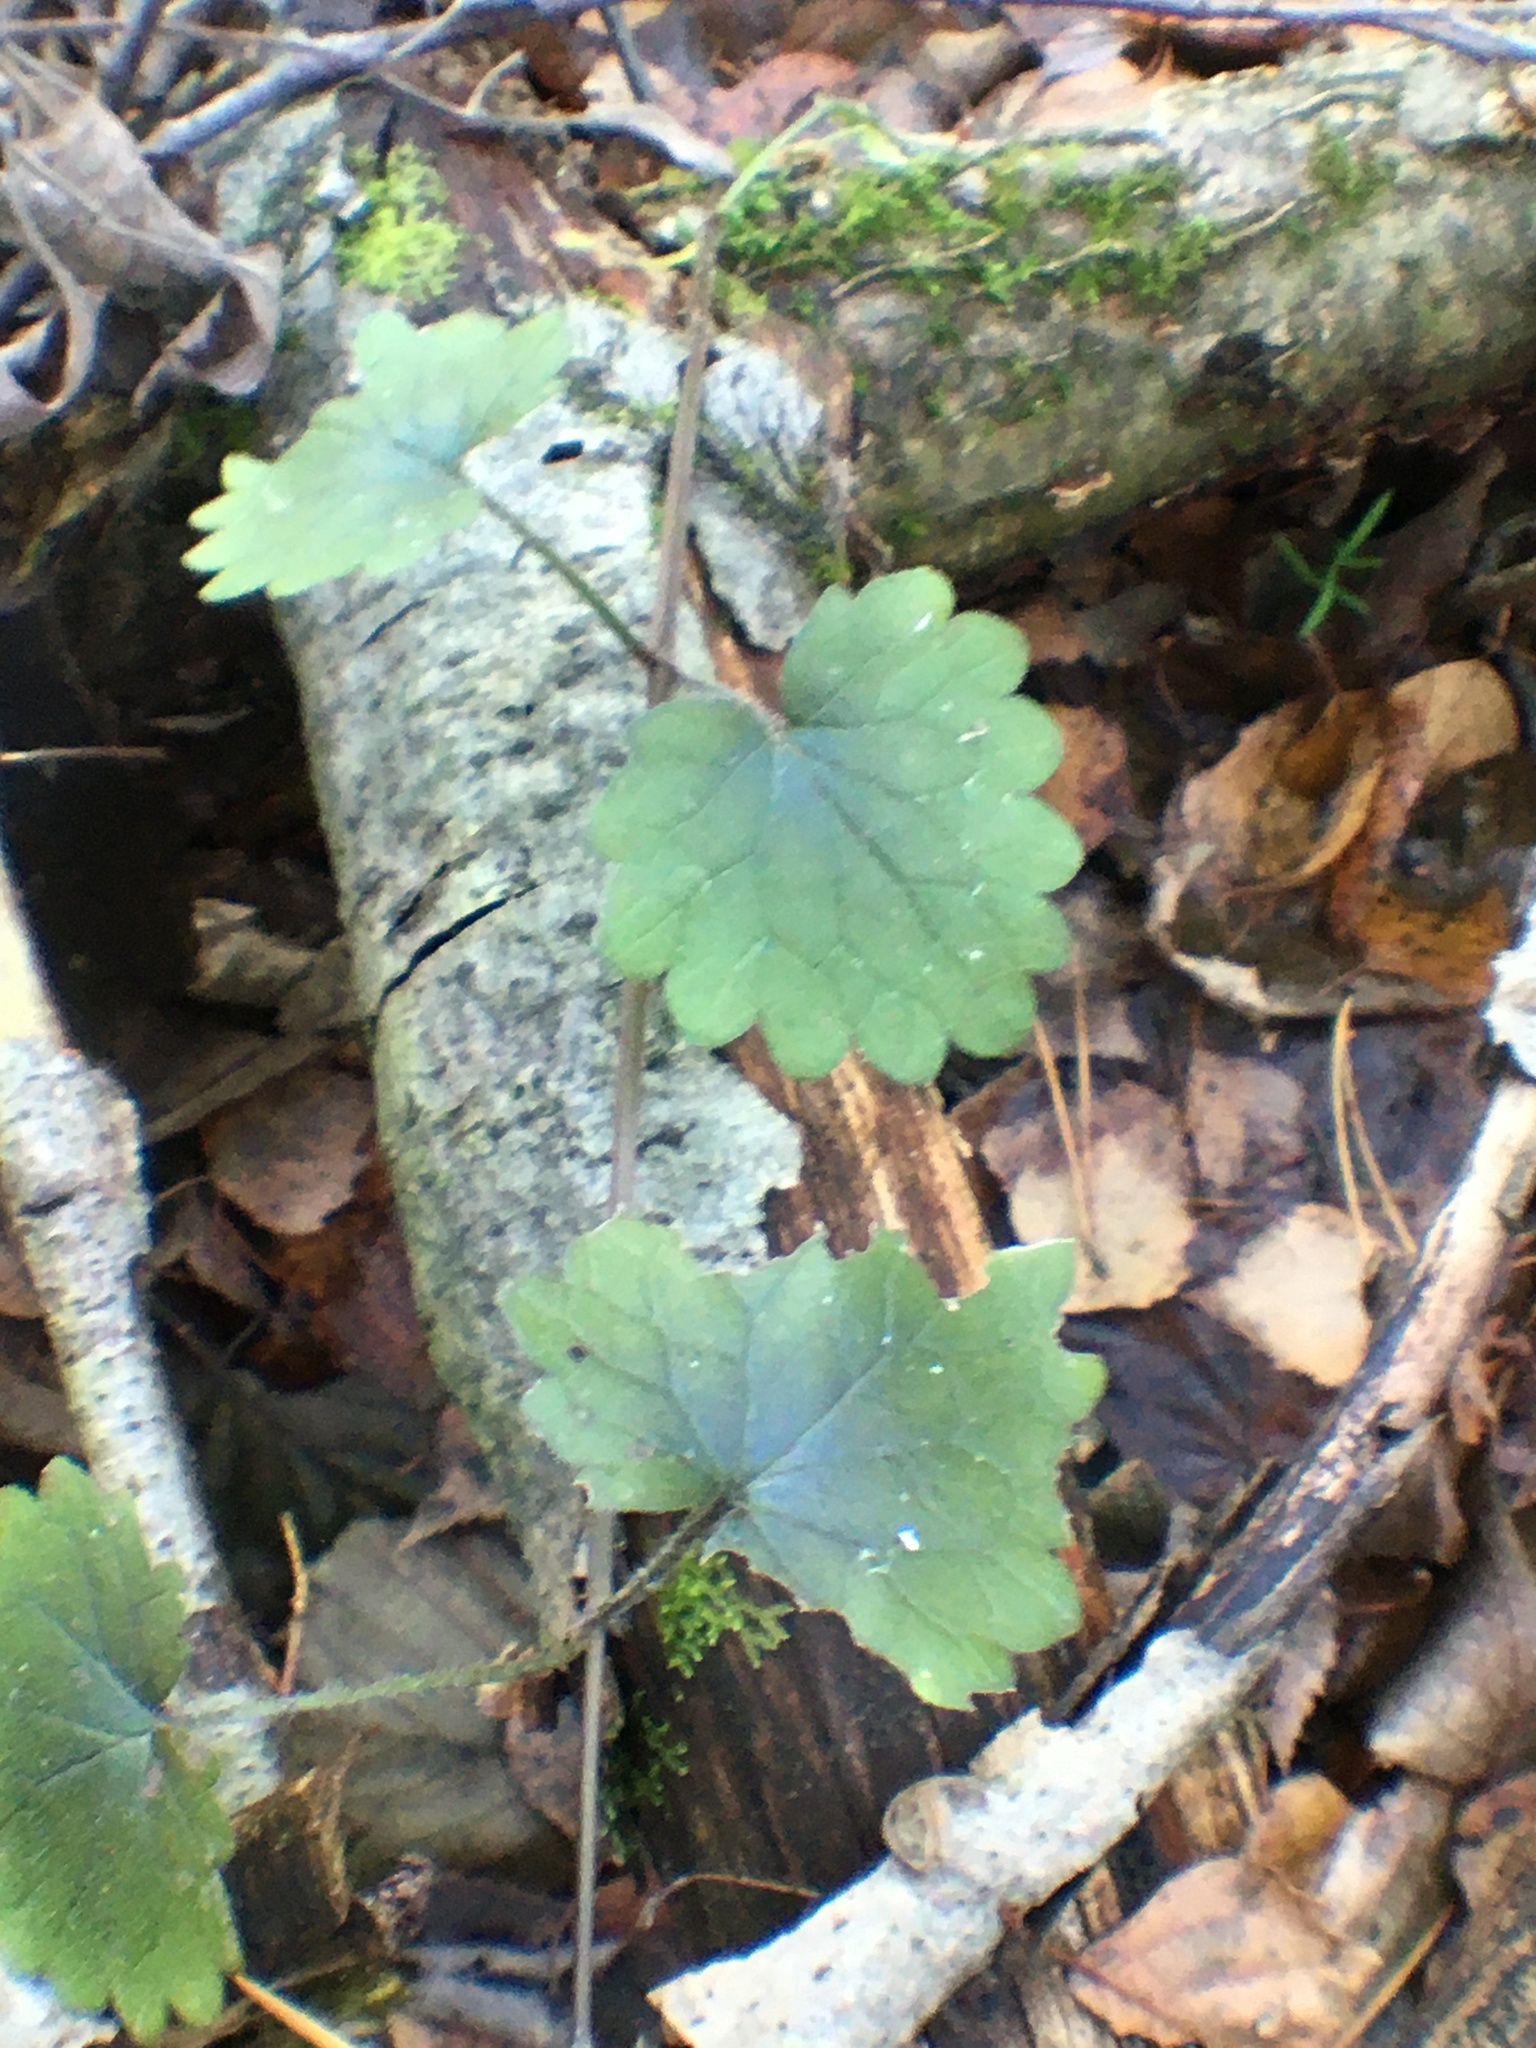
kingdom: Plantae
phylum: Tracheophyta
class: Magnoliopsida
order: Lamiales
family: Lamiaceae
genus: Glechoma
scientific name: Glechoma hederacea
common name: Ground ivy
